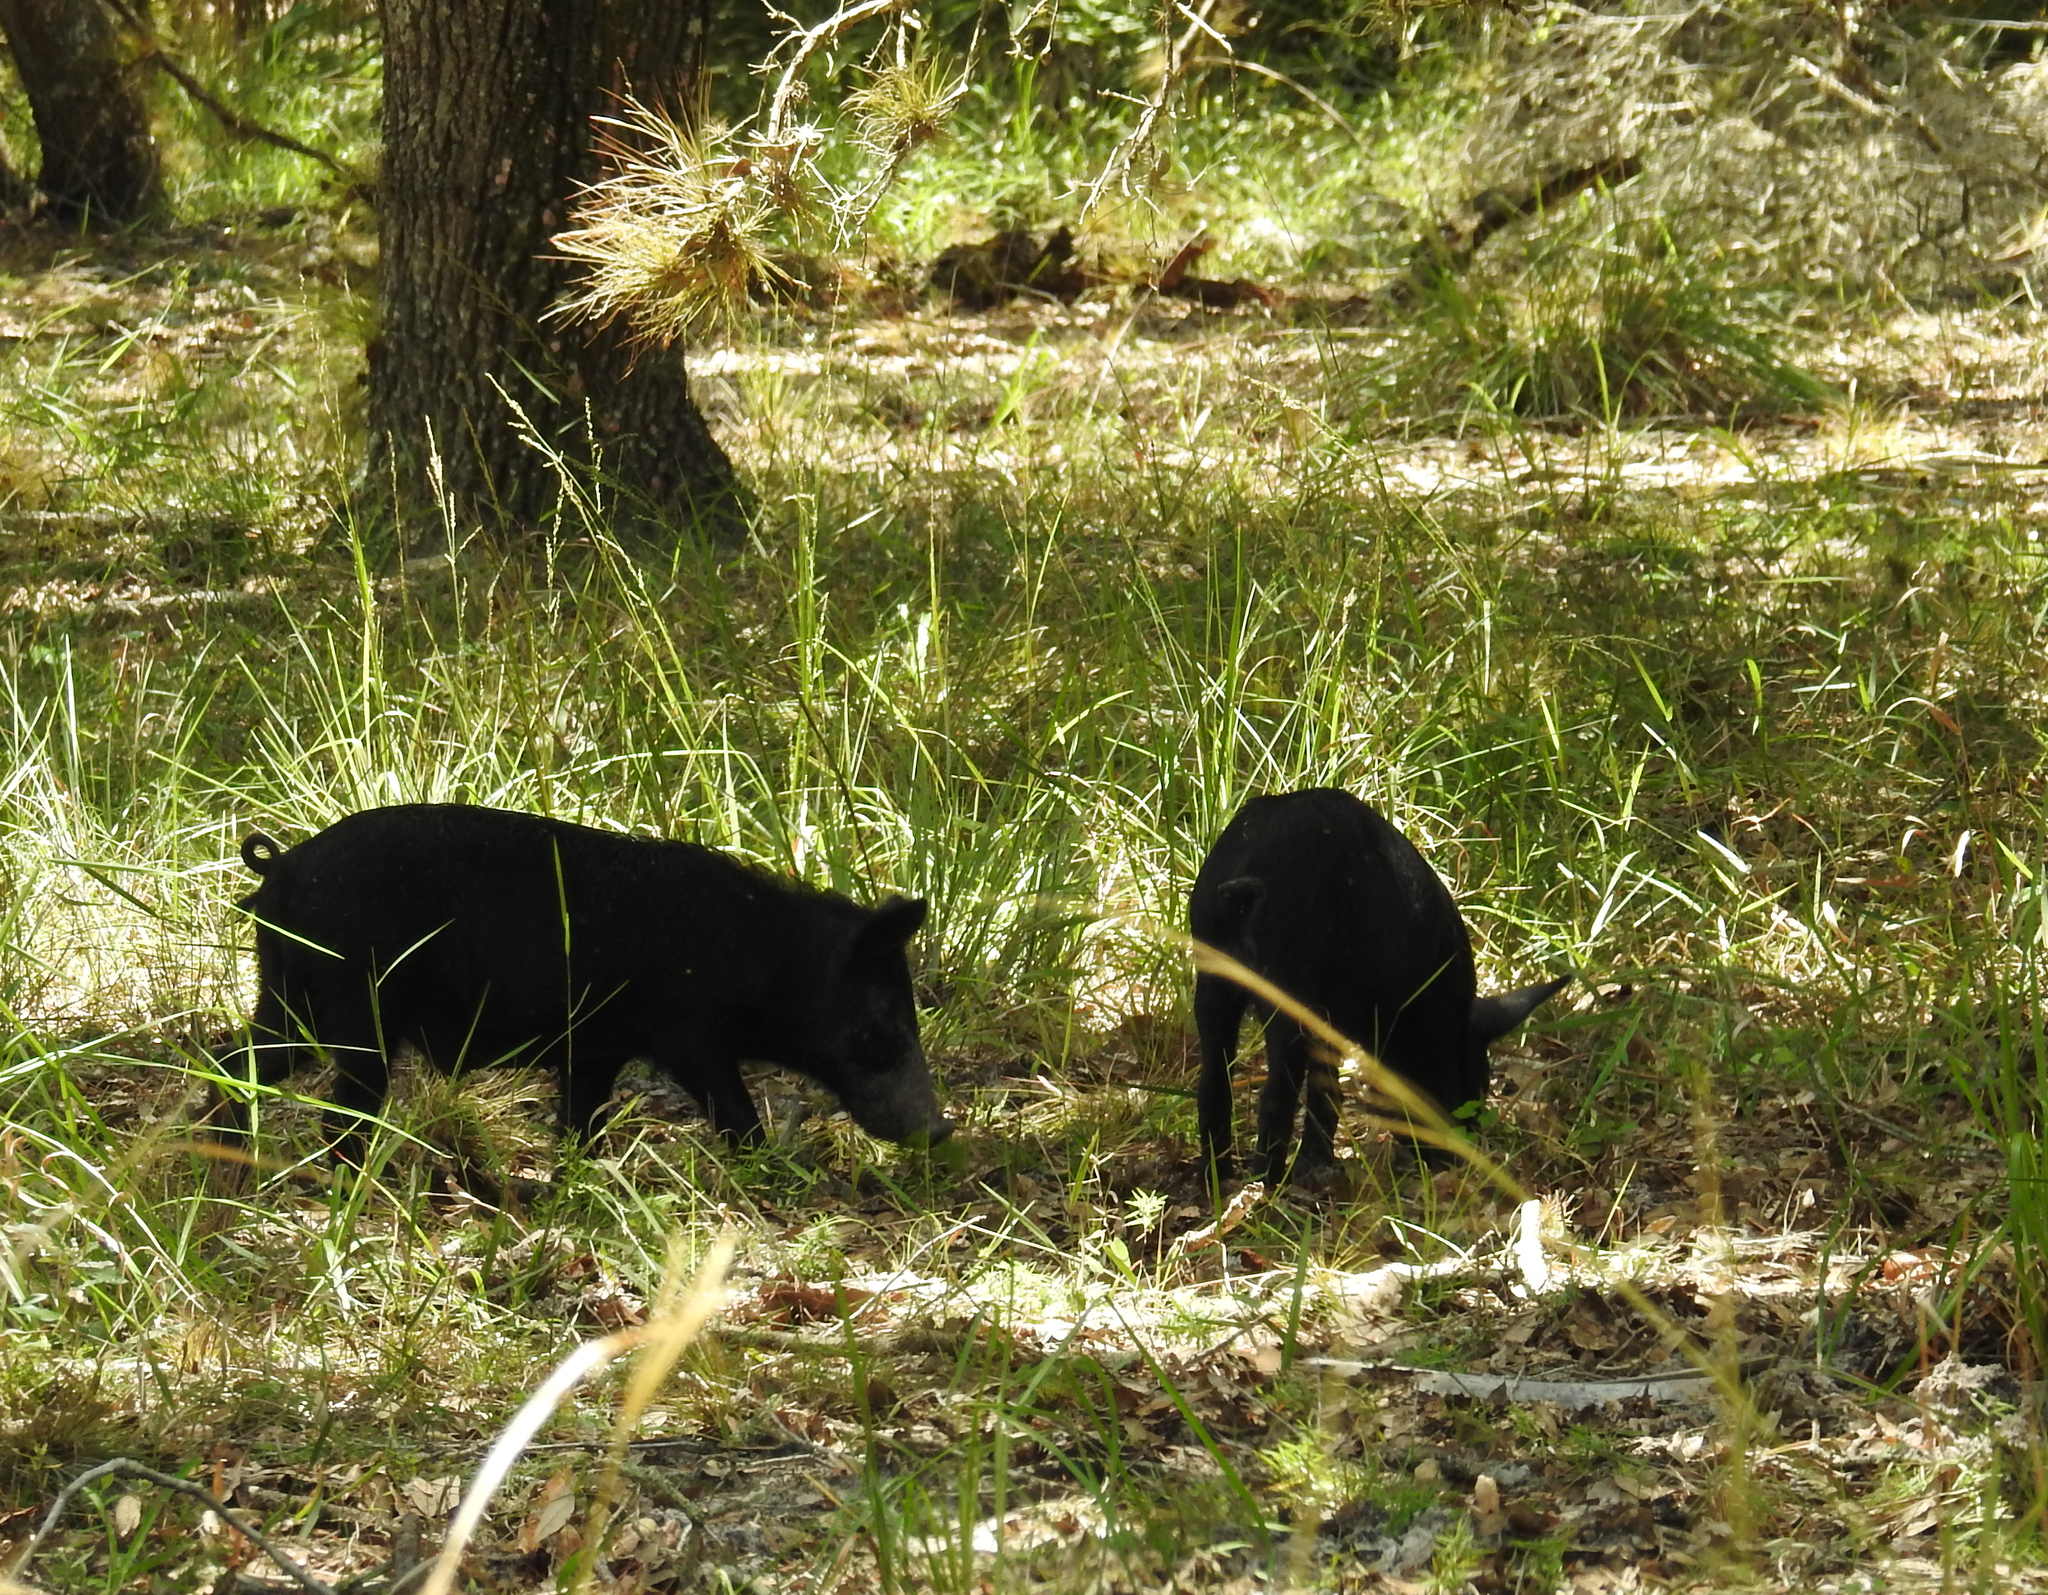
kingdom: Animalia
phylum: Chordata
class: Mammalia
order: Artiodactyla
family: Suidae
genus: Sus
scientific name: Sus scrofa
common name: Wild boar
